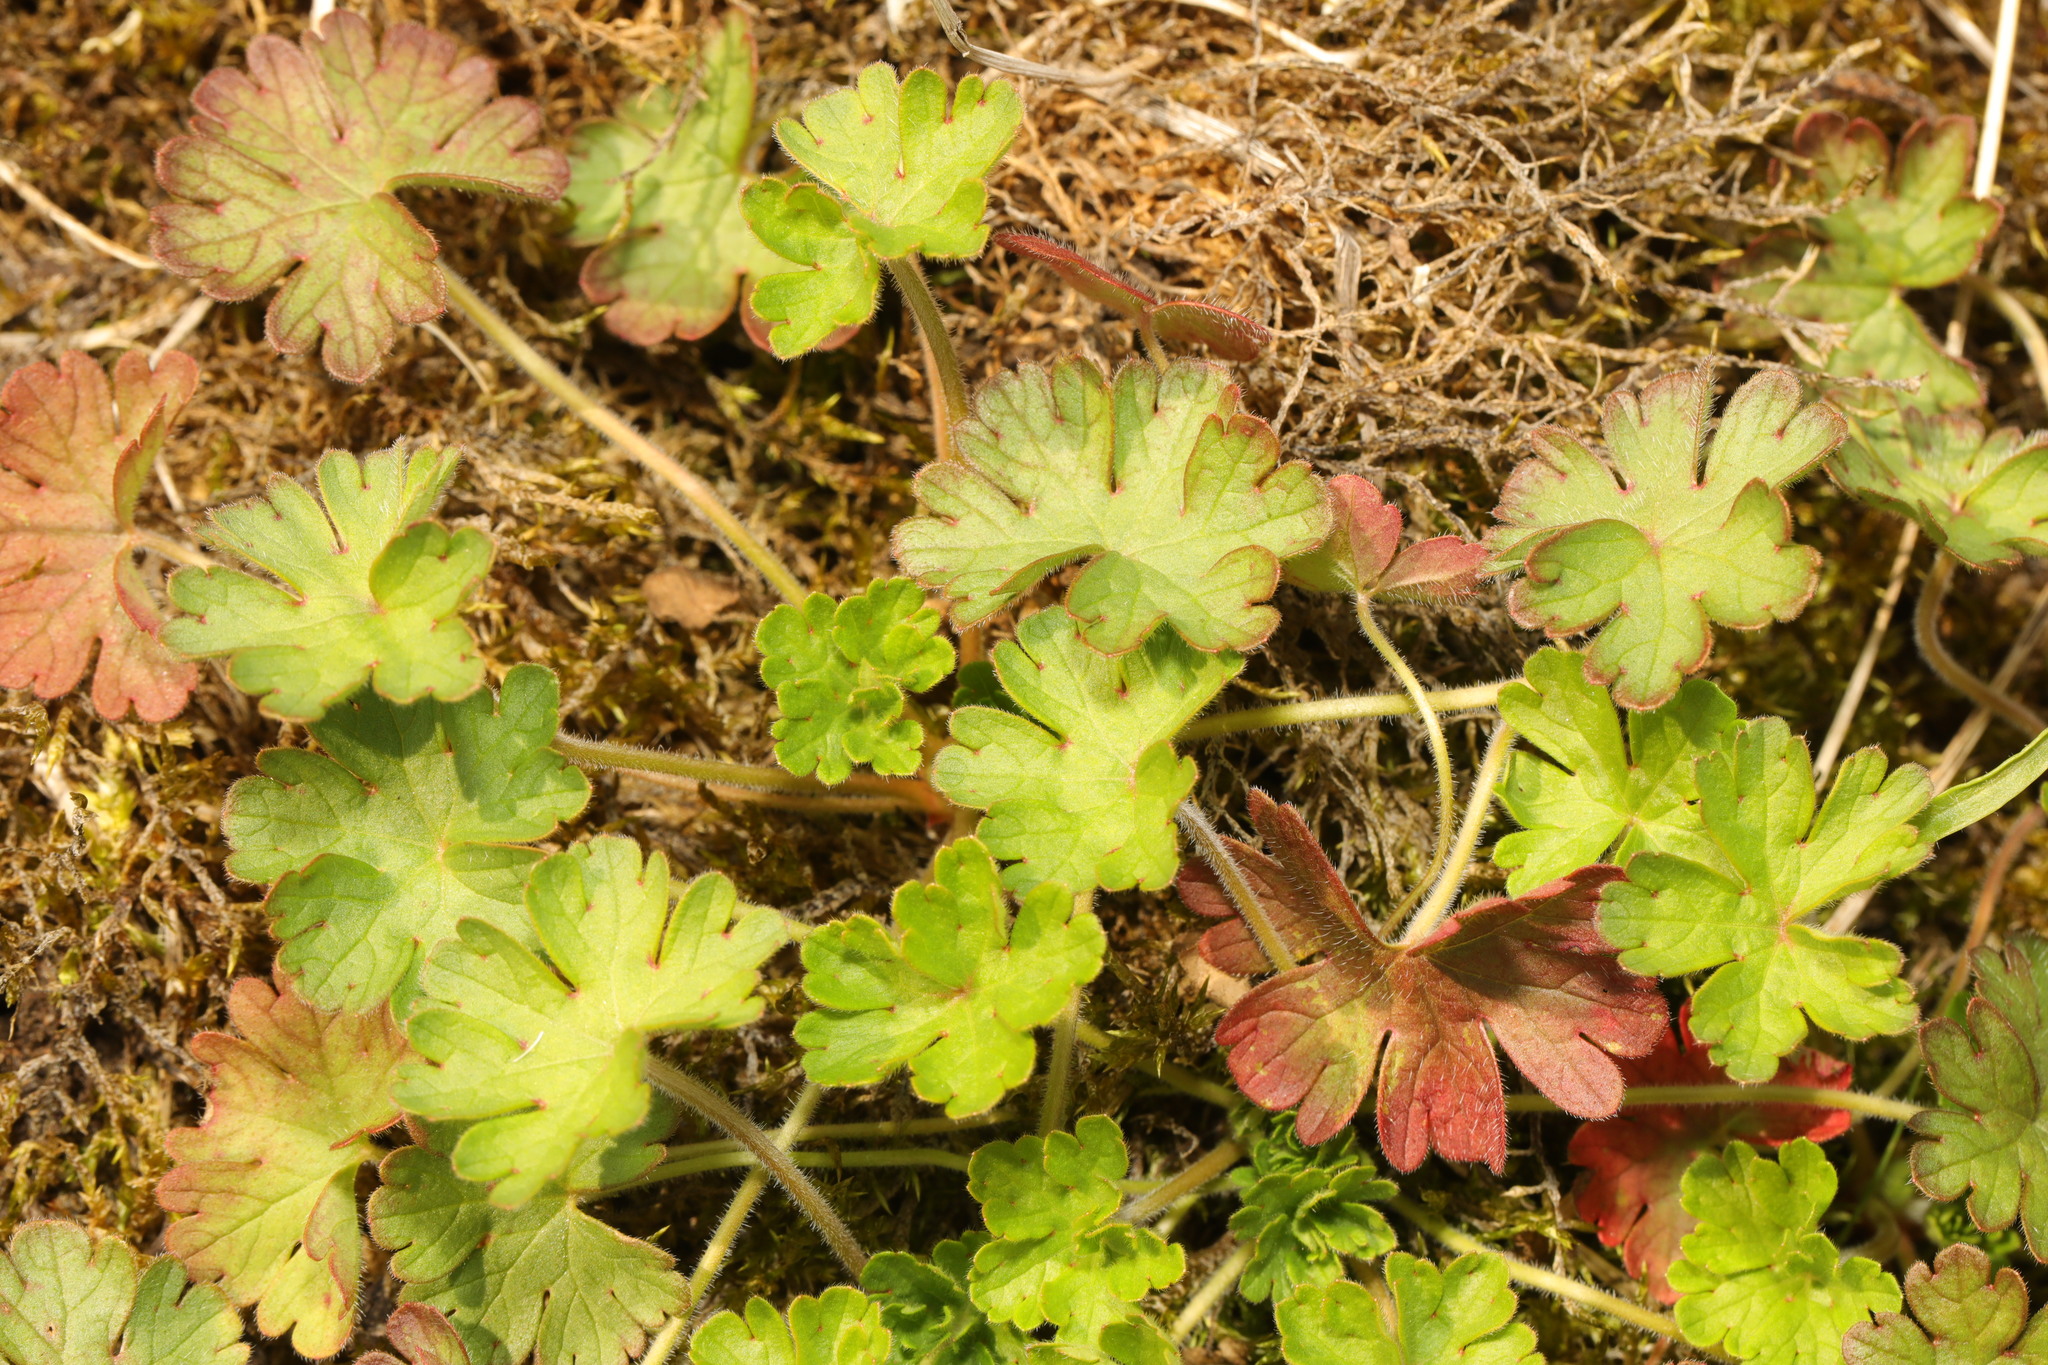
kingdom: Plantae
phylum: Tracheophyta
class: Magnoliopsida
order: Geraniales
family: Geraniaceae
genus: Geranium
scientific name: Geranium molle
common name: Dove's-foot crane's-bill
